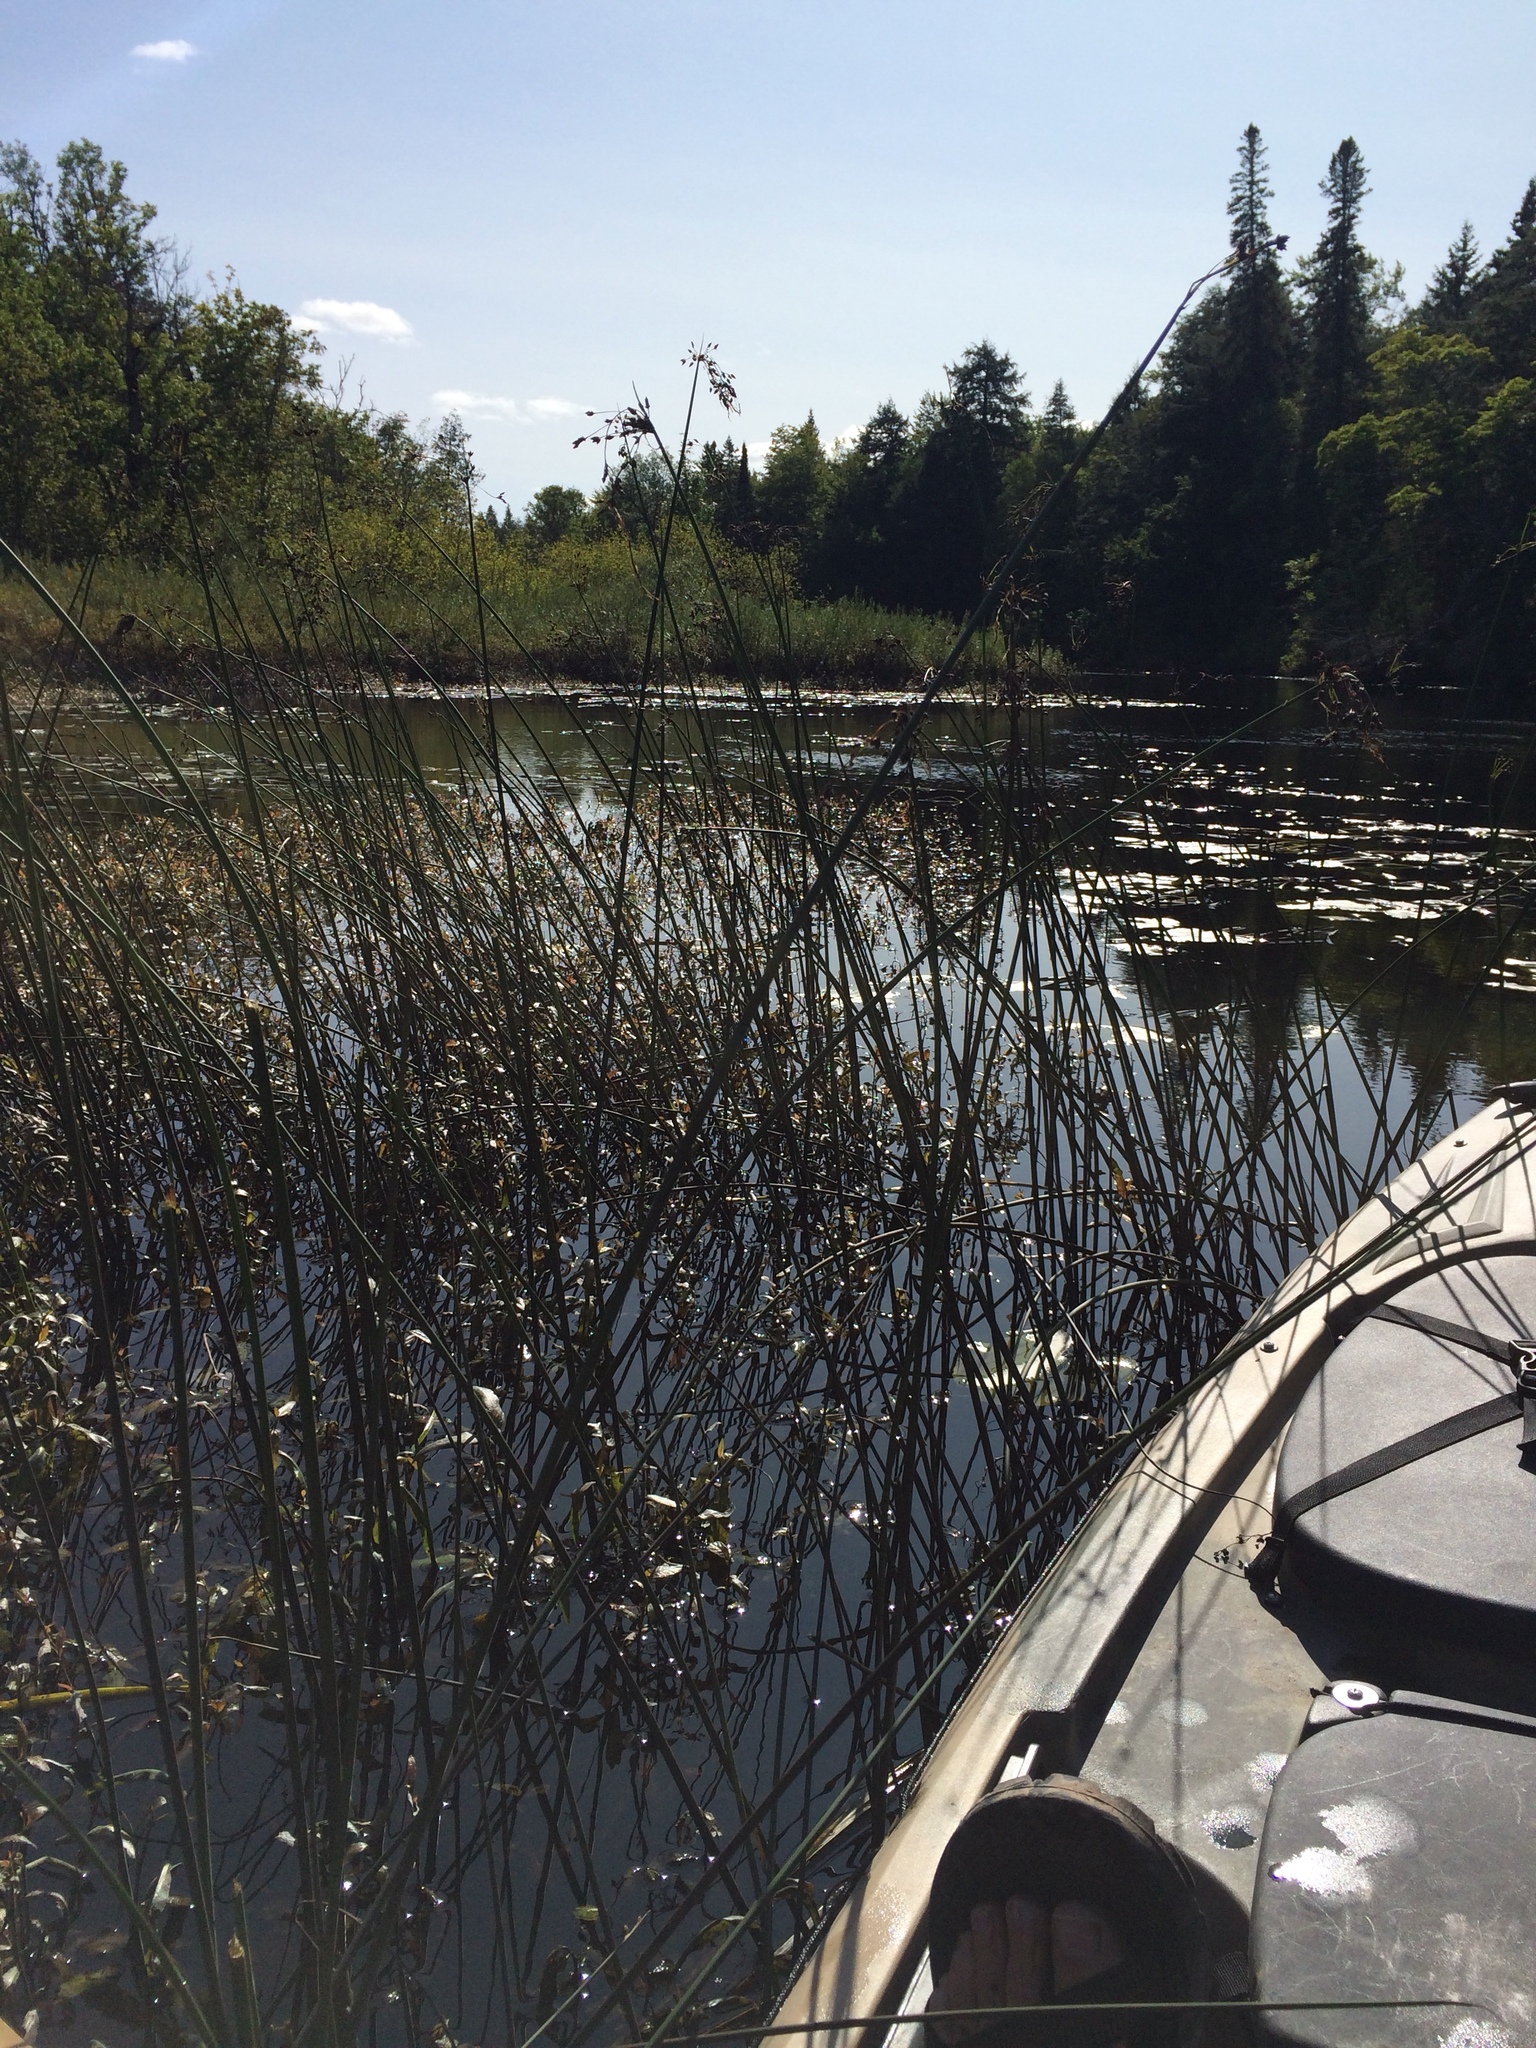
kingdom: Plantae
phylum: Tracheophyta
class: Liliopsida
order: Poales
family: Cyperaceae
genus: Schoenoplectus
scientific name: Schoenoplectus tabernaemontani
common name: Grey club-rush
